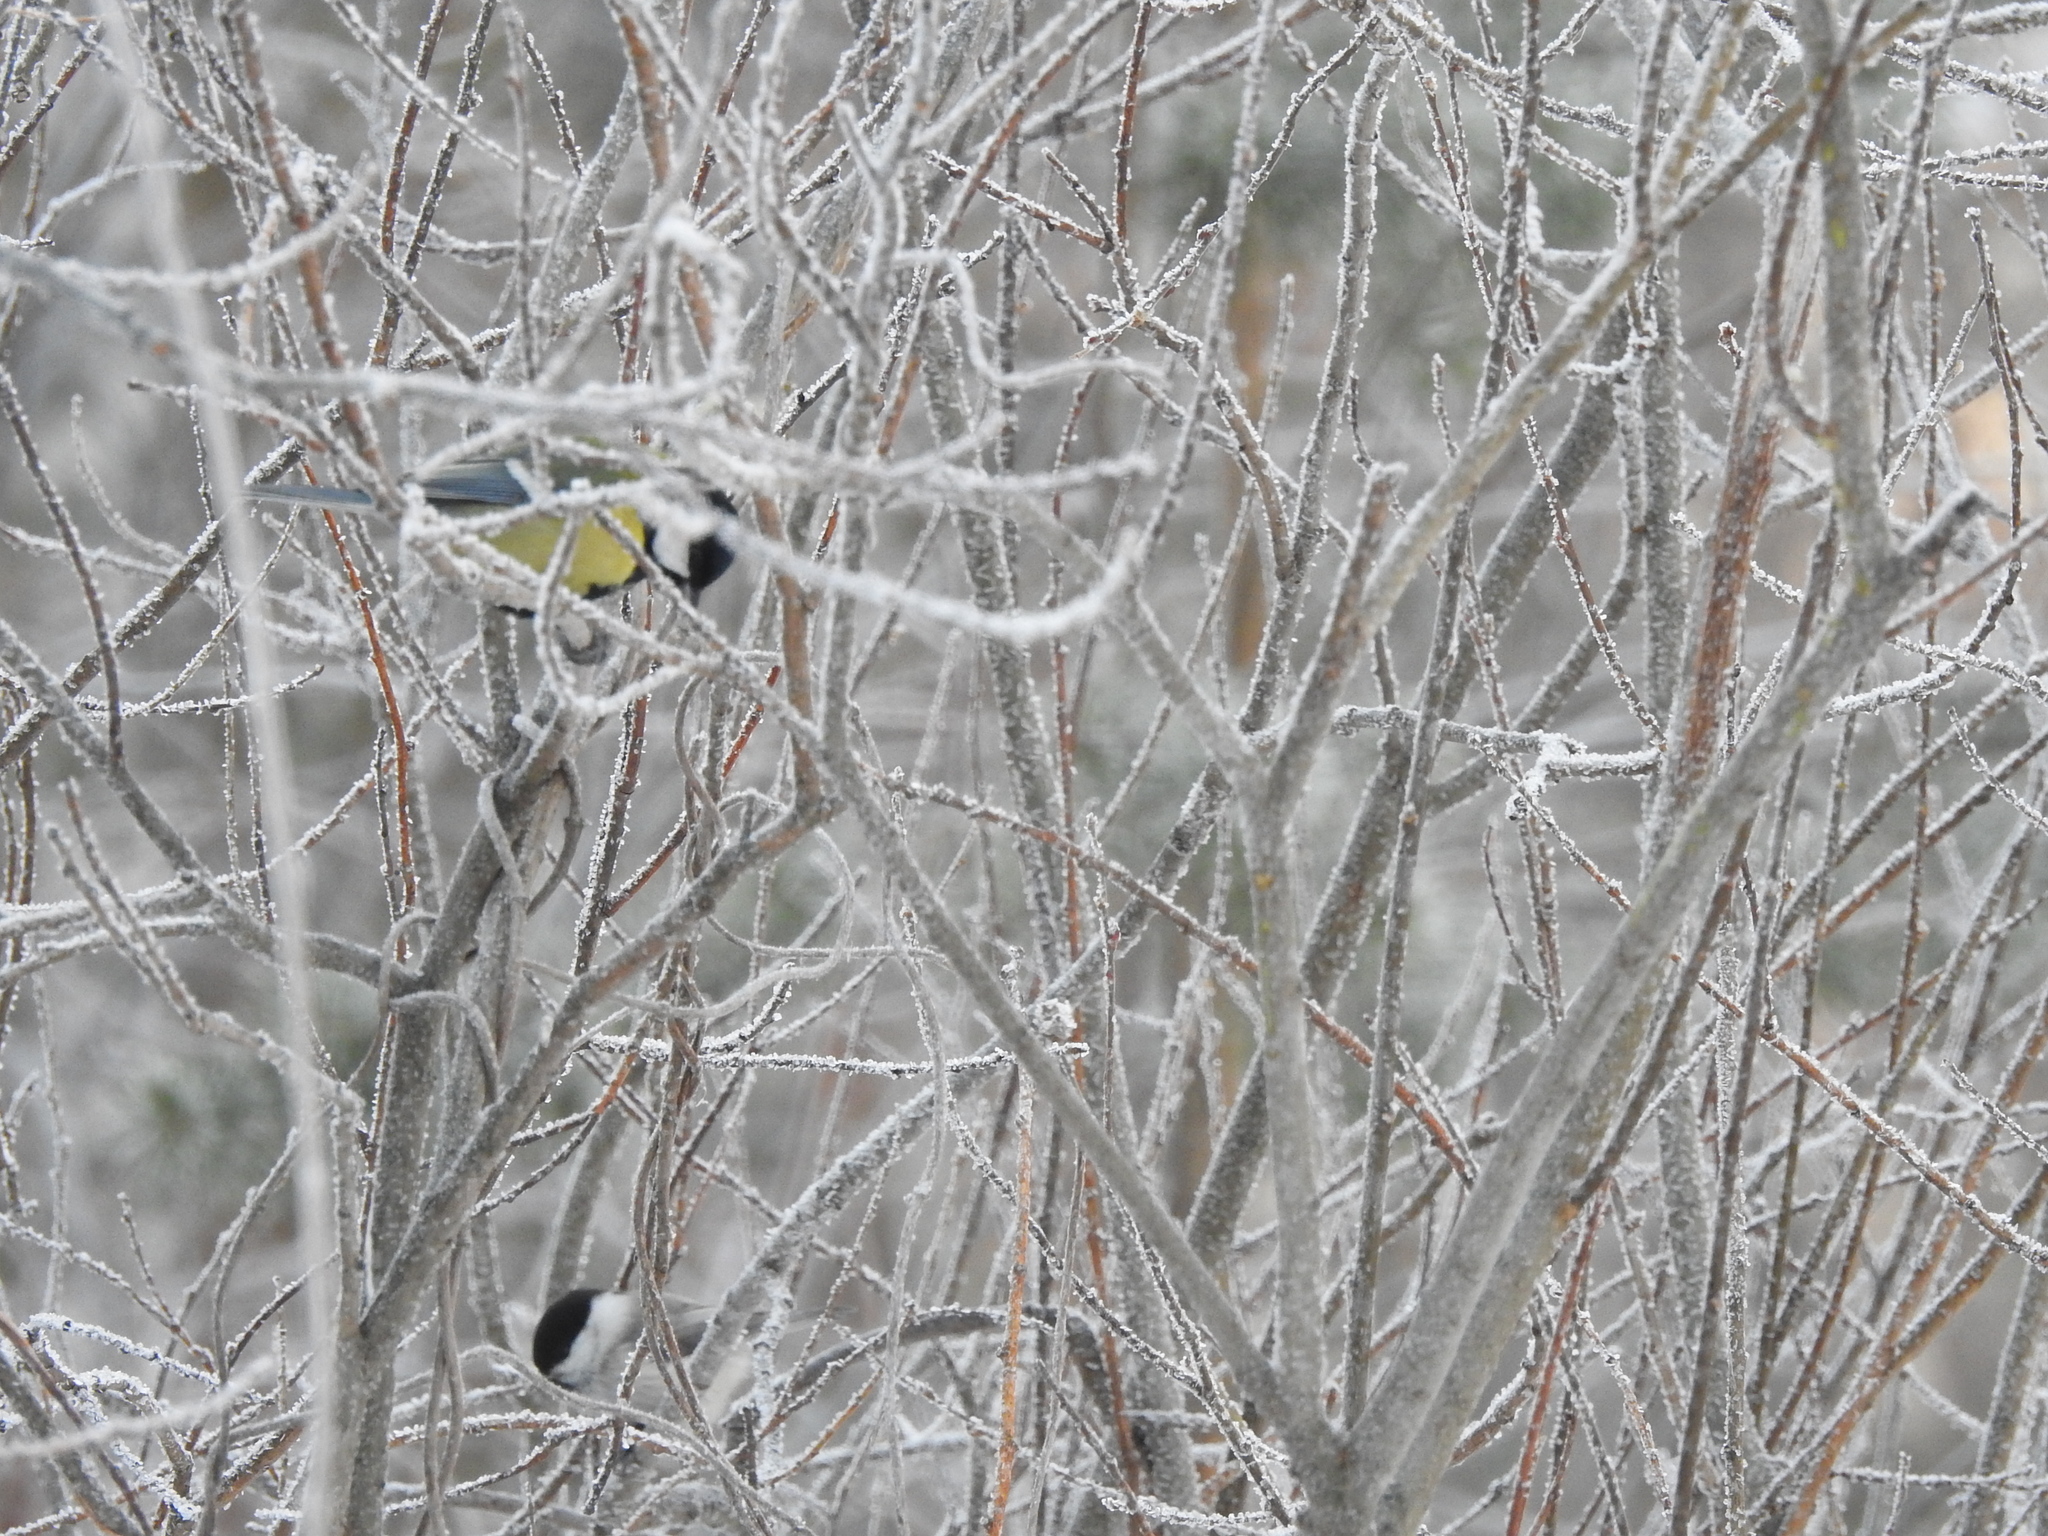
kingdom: Animalia
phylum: Chordata
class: Aves
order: Passeriformes
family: Paridae
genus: Parus
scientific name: Parus major
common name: Great tit
